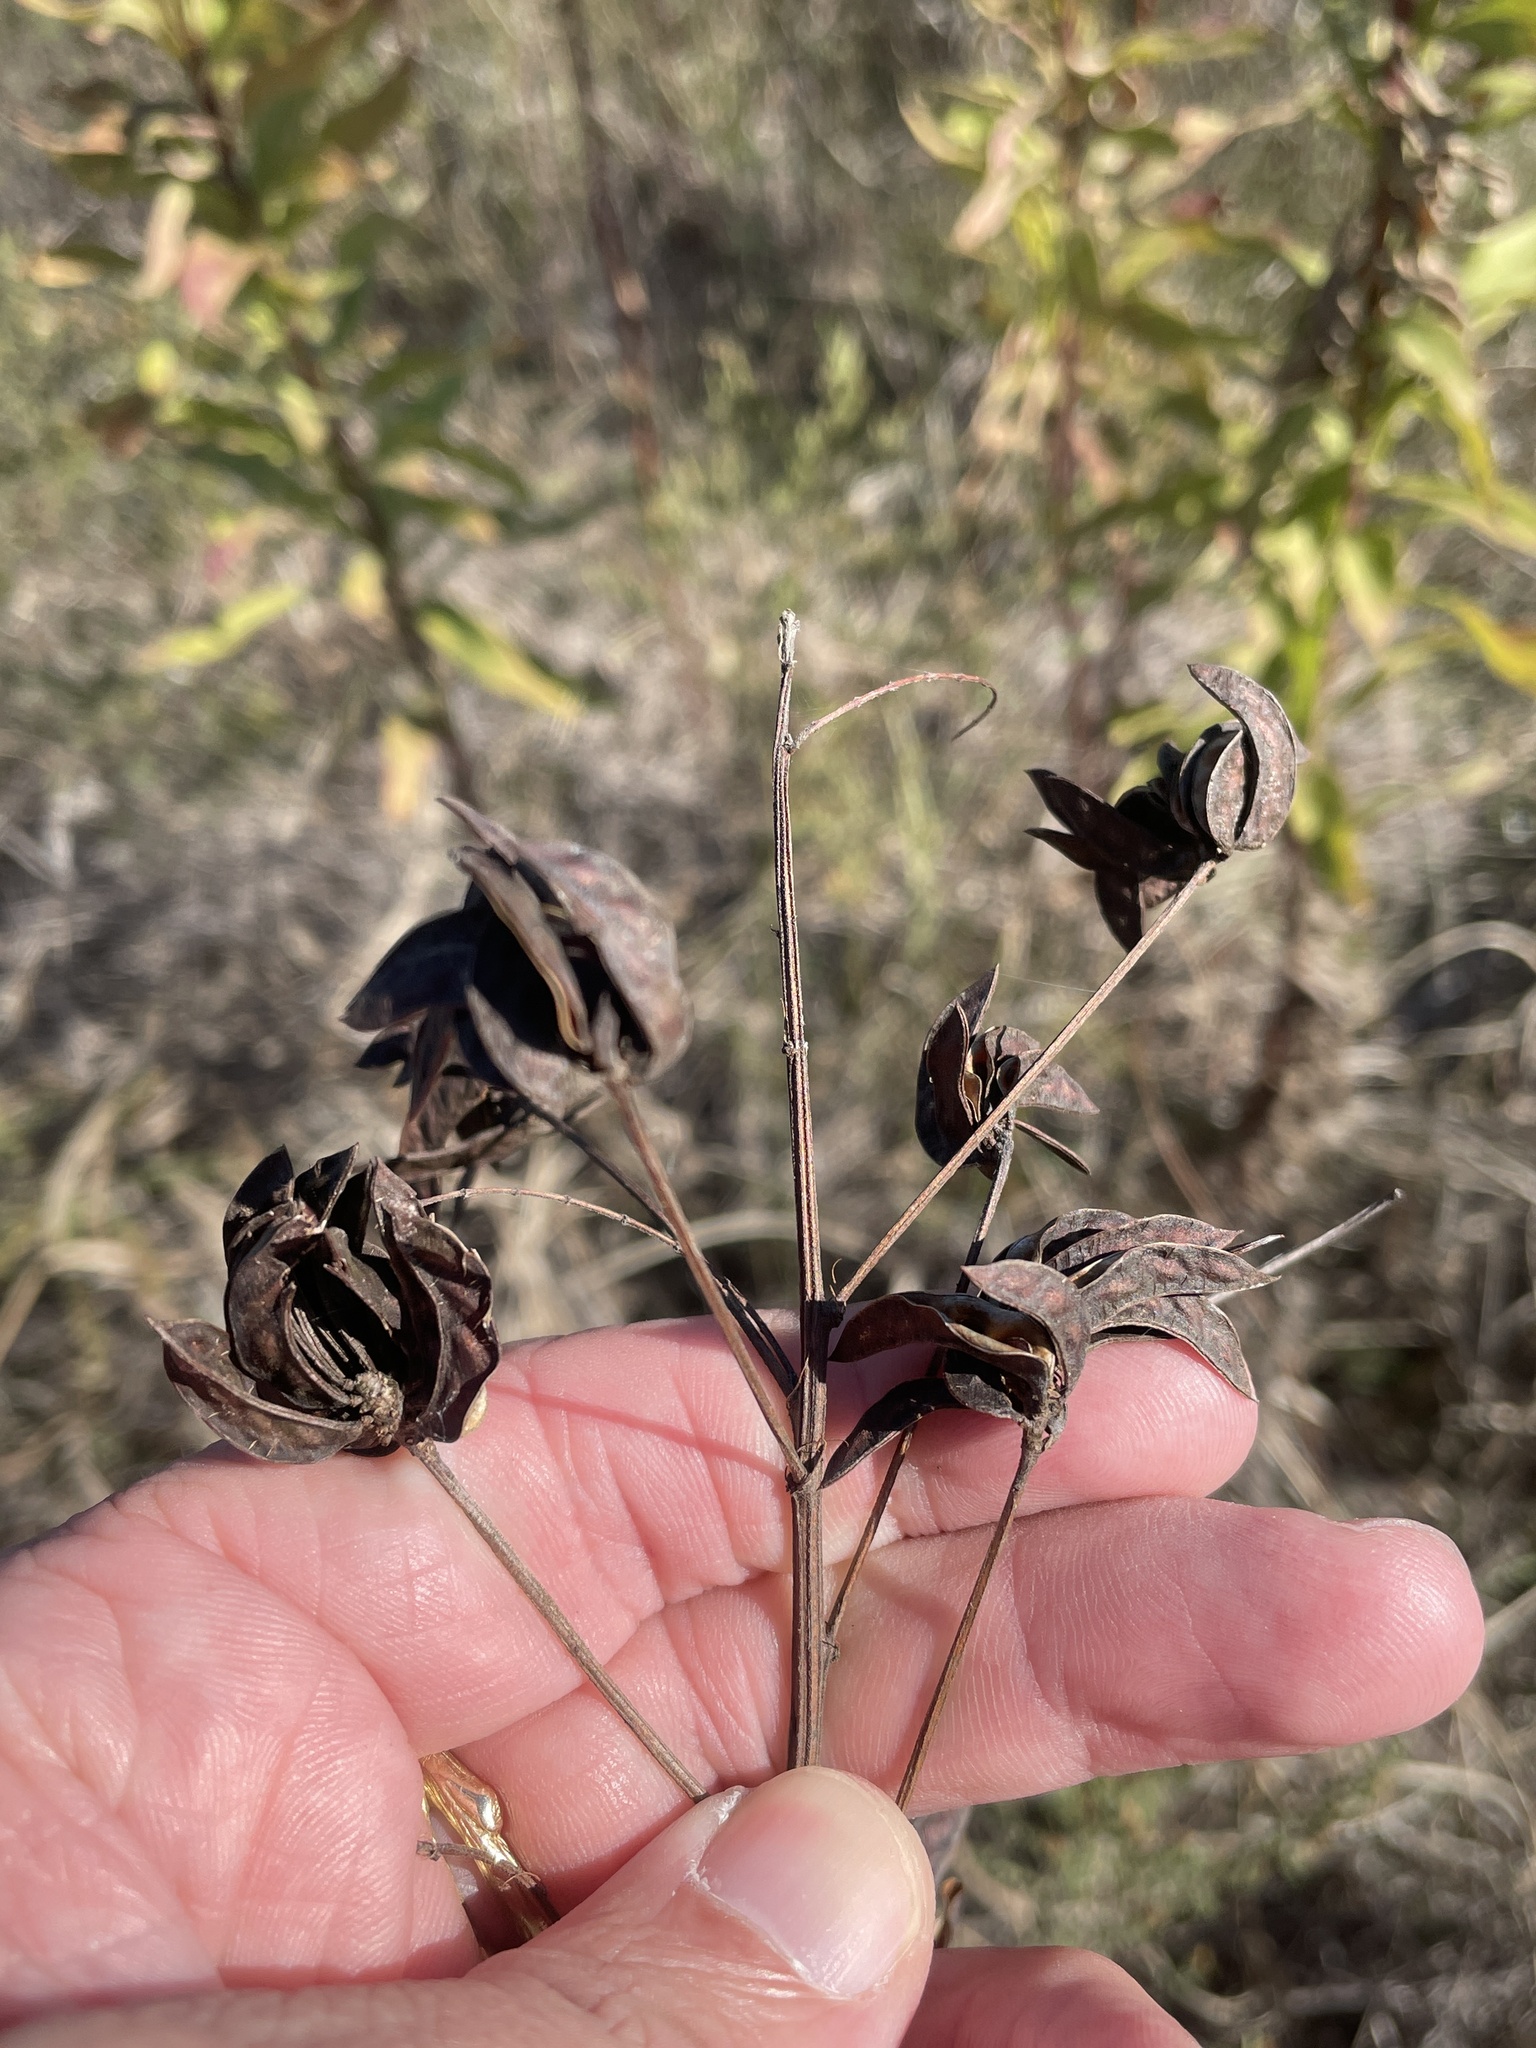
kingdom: Plantae
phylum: Tracheophyta
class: Magnoliopsida
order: Fabales
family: Fabaceae
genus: Desmanthus
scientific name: Desmanthus illinoensis
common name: Illinois bundle-flower
